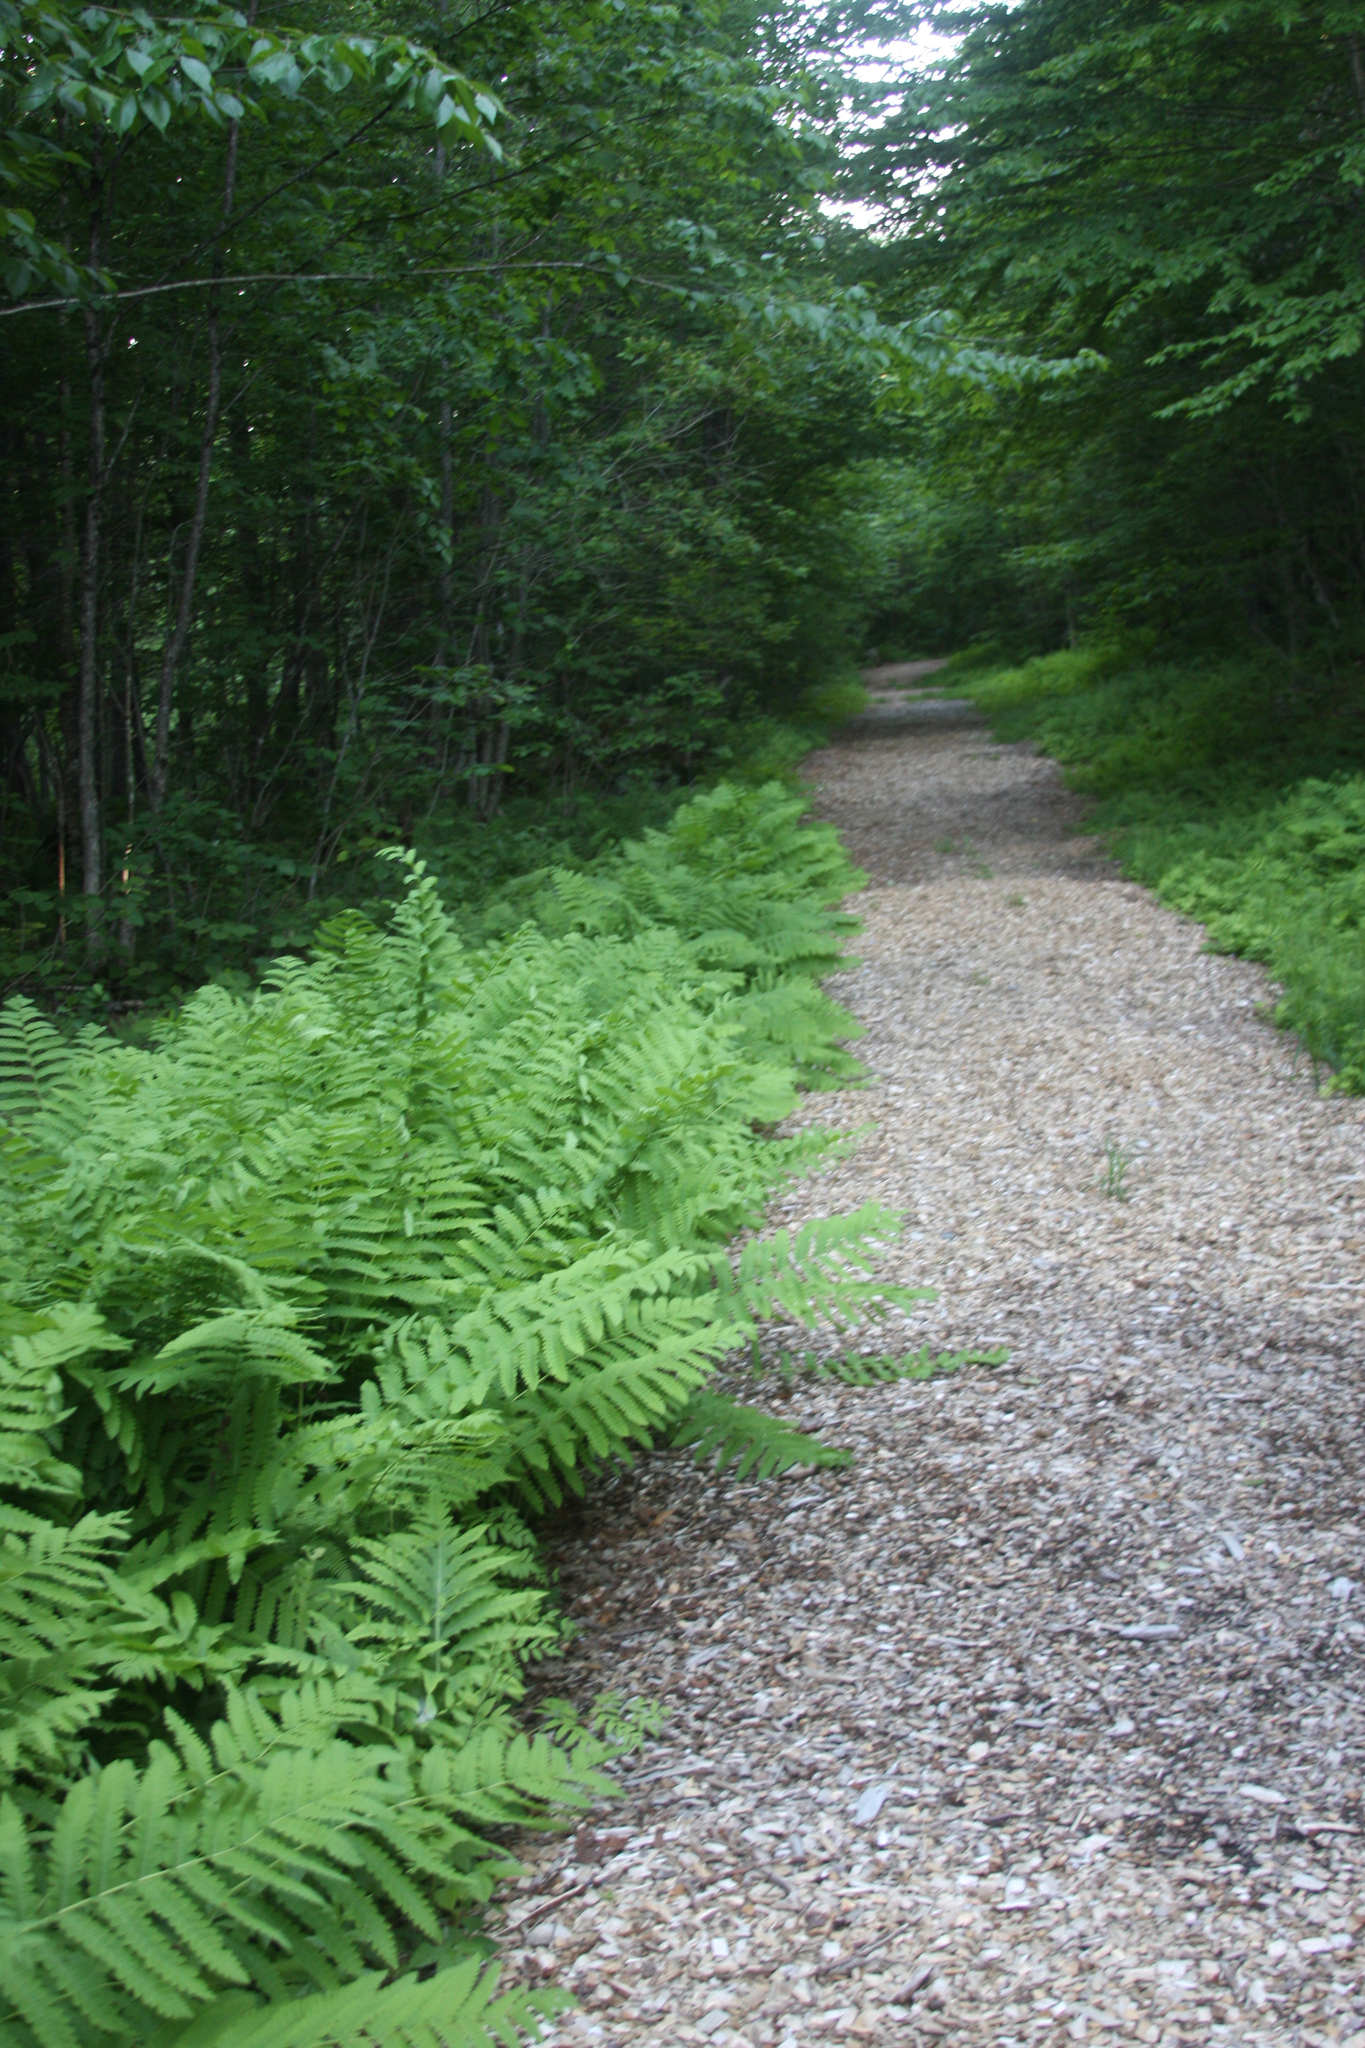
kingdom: Plantae
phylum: Tracheophyta
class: Polypodiopsida
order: Osmundales
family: Osmundaceae
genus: Claytosmunda
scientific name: Claytosmunda claytoniana
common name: Clayton's fern
